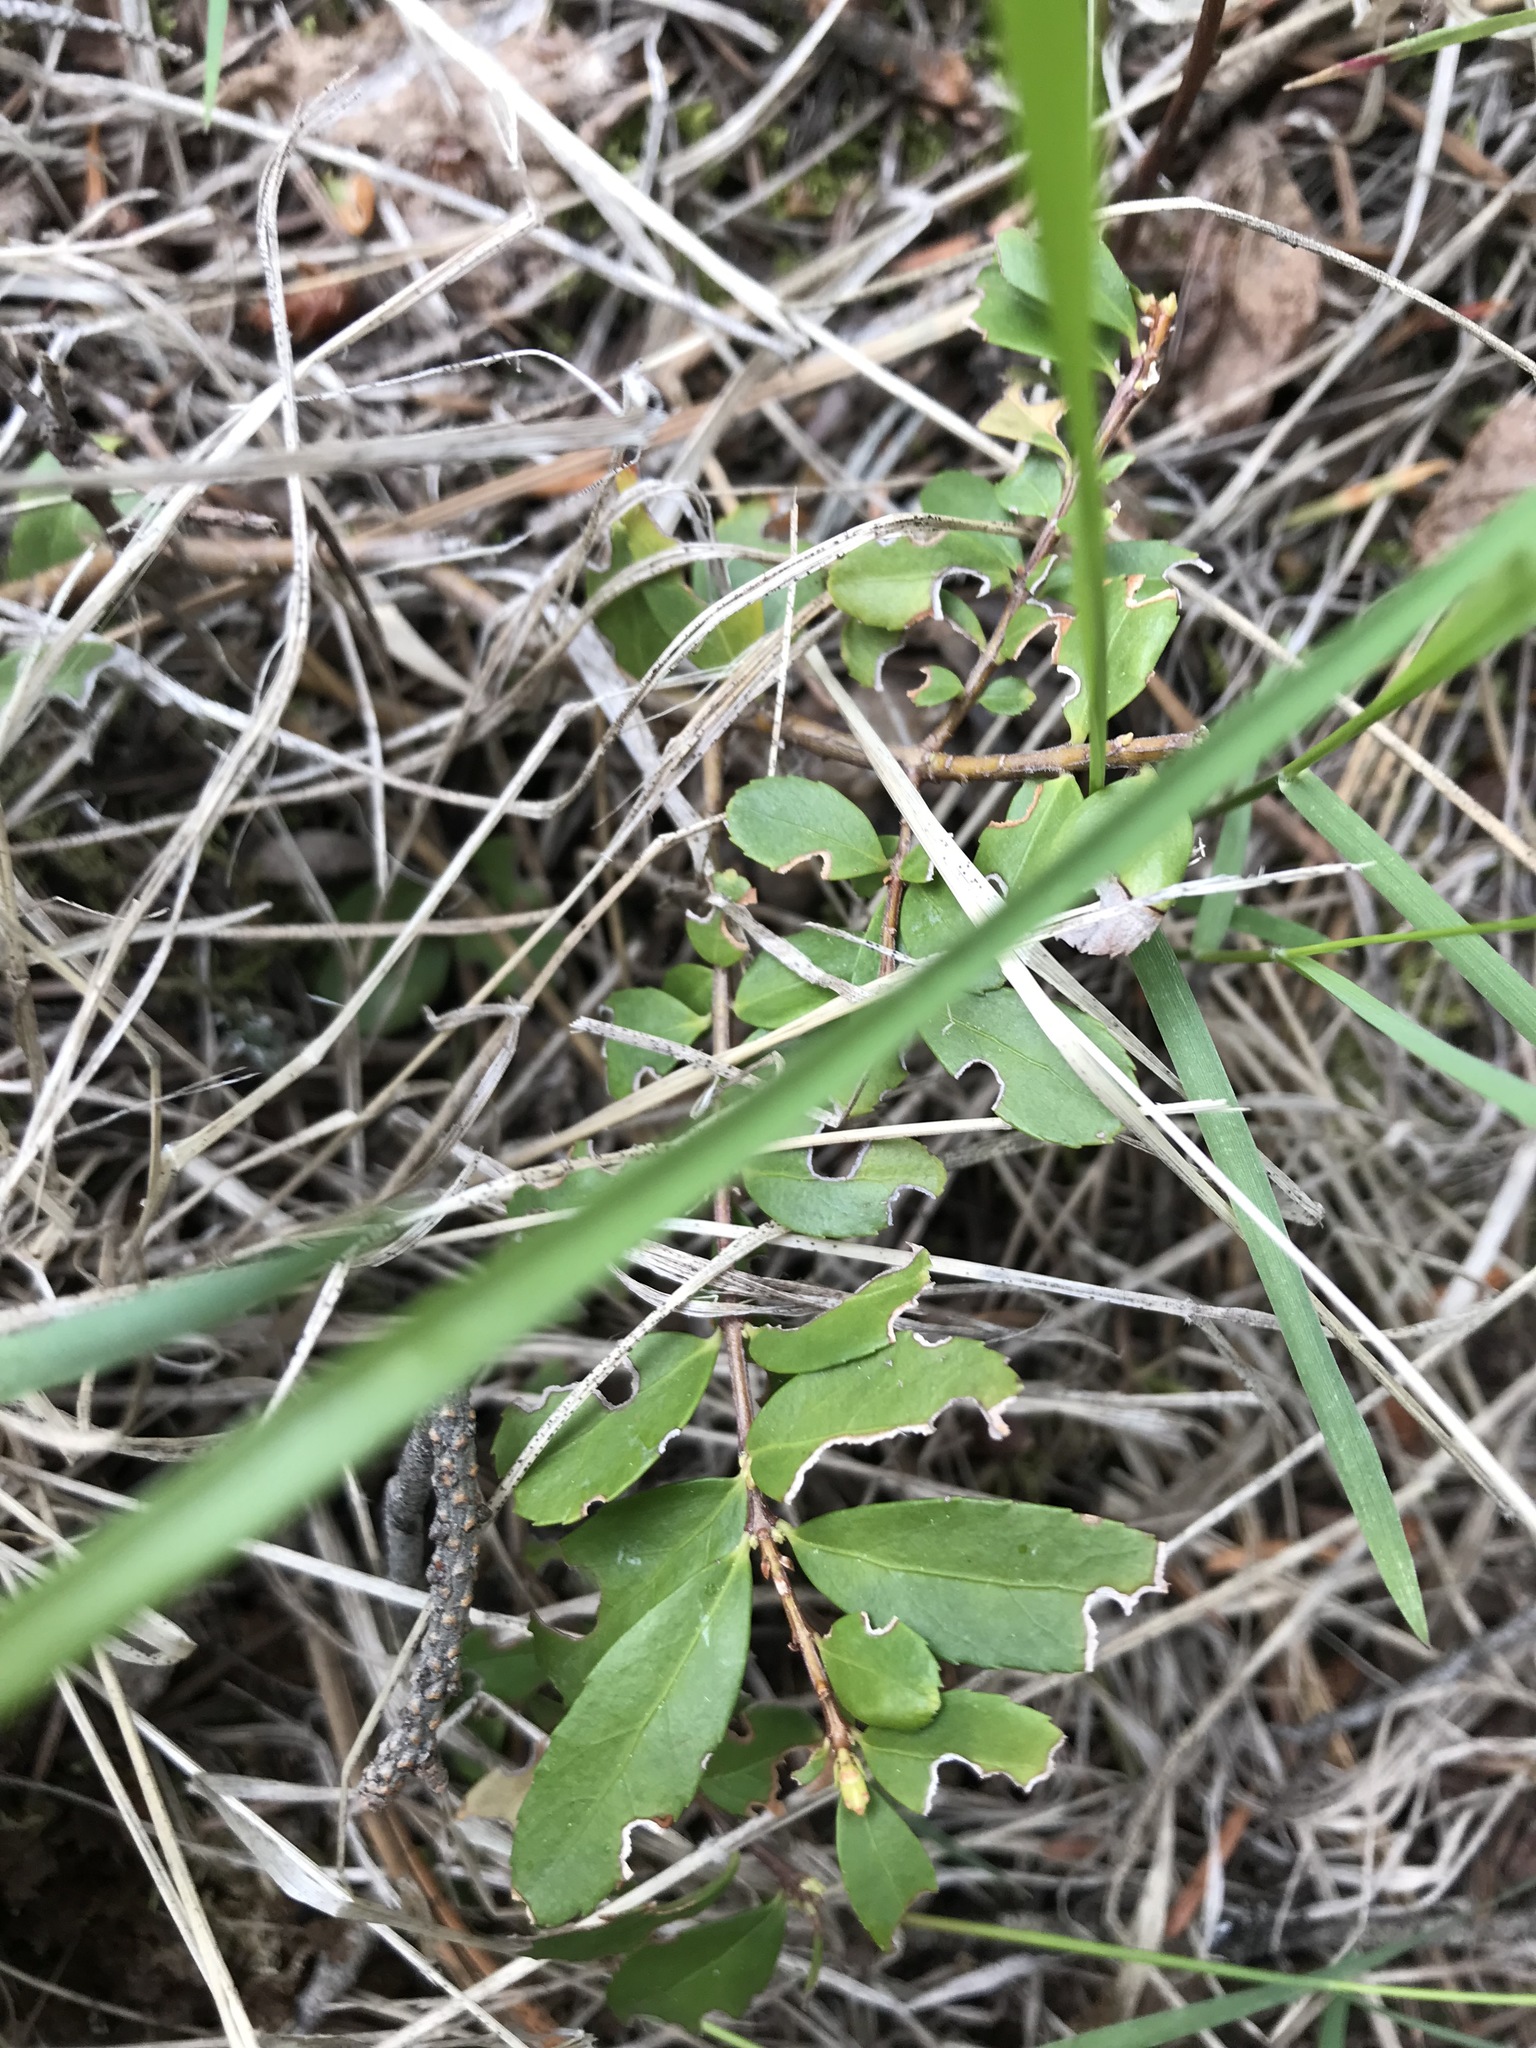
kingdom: Plantae
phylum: Tracheophyta
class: Magnoliopsida
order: Celastrales
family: Celastraceae
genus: Paxistima
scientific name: Paxistima myrsinites
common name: Mountain-lover
